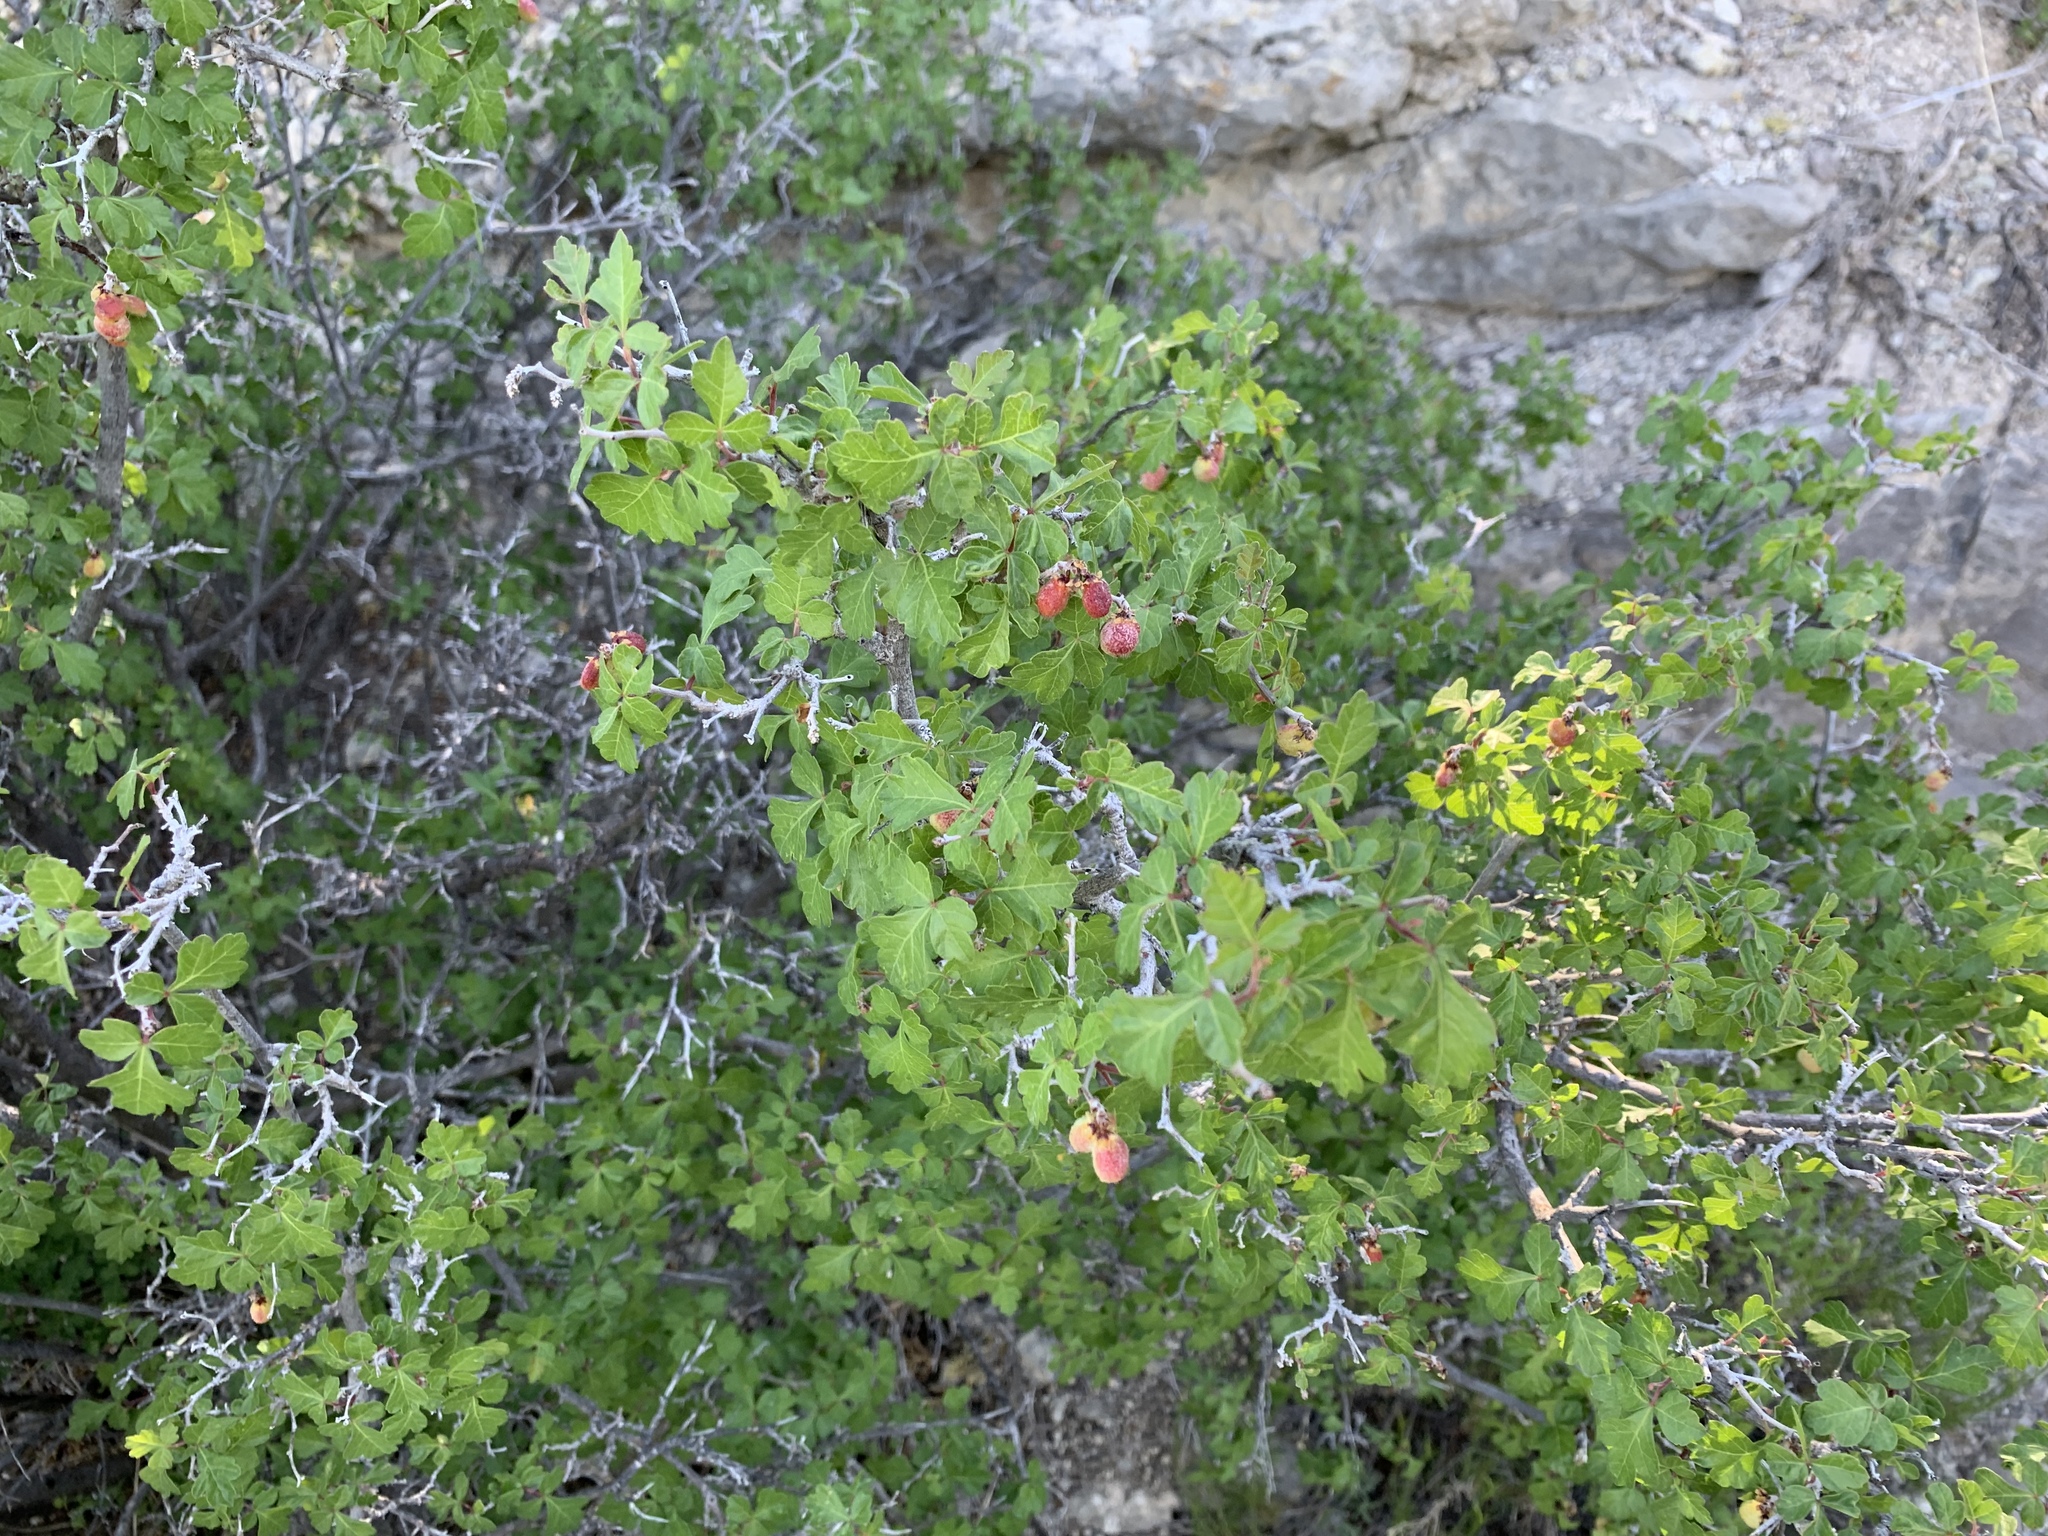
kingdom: Plantae
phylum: Tracheophyta
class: Magnoliopsida
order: Sapindales
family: Anacardiaceae
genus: Rhus
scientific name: Rhus aromatica
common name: Aromatic sumac
